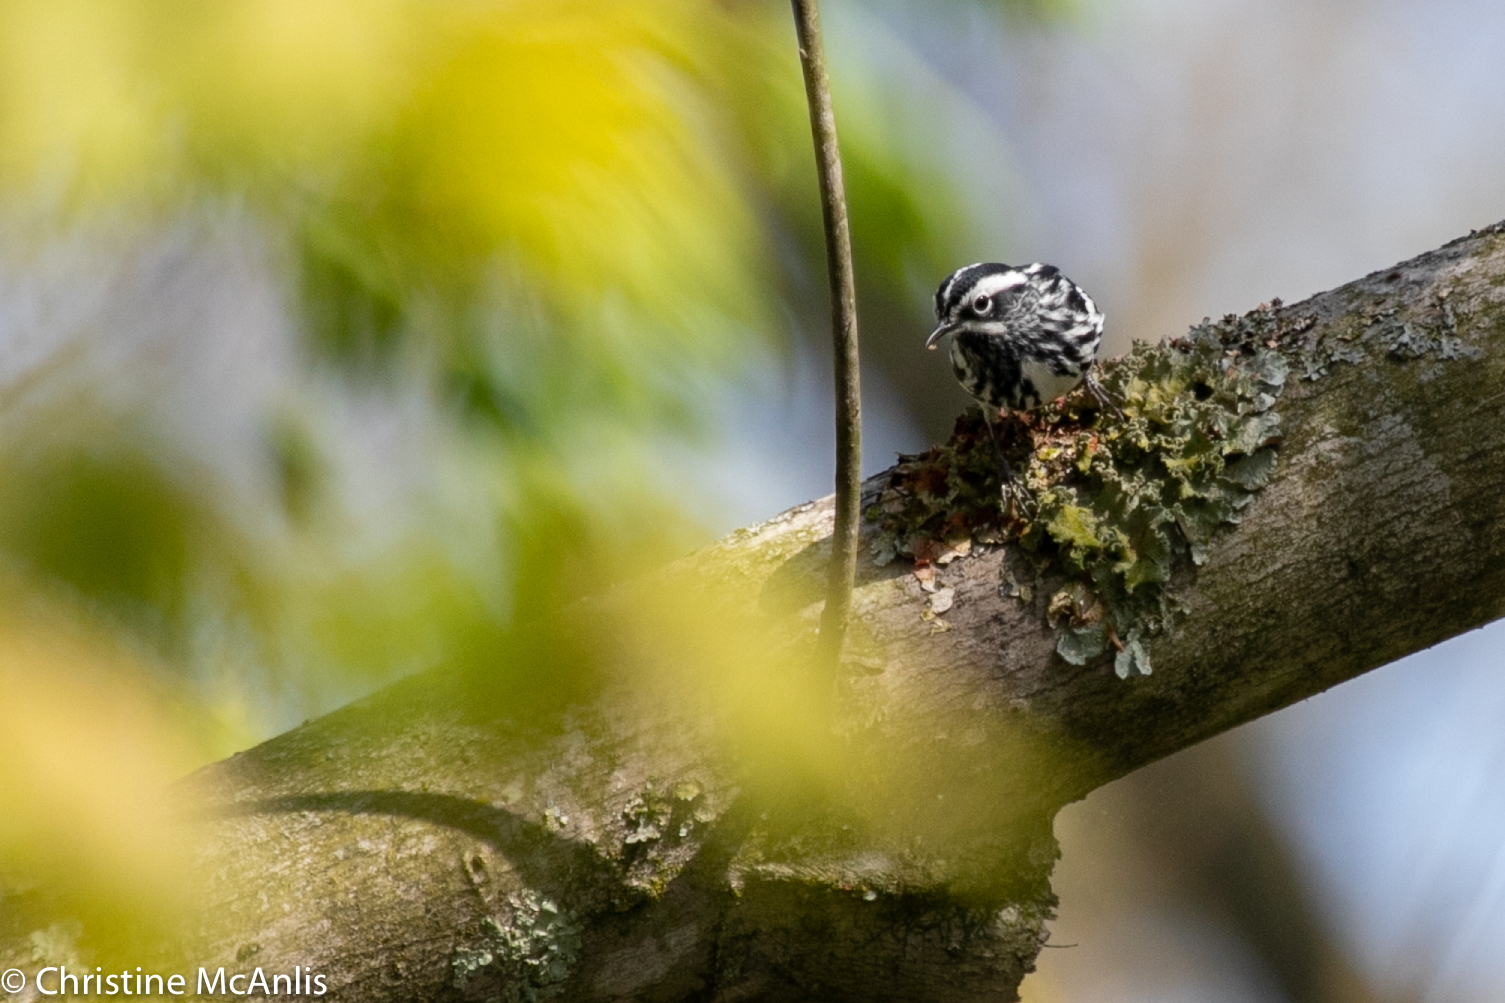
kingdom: Animalia
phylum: Chordata
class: Aves
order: Passeriformes
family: Parulidae
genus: Mniotilta
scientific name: Mniotilta varia
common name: Black-and-white warbler
